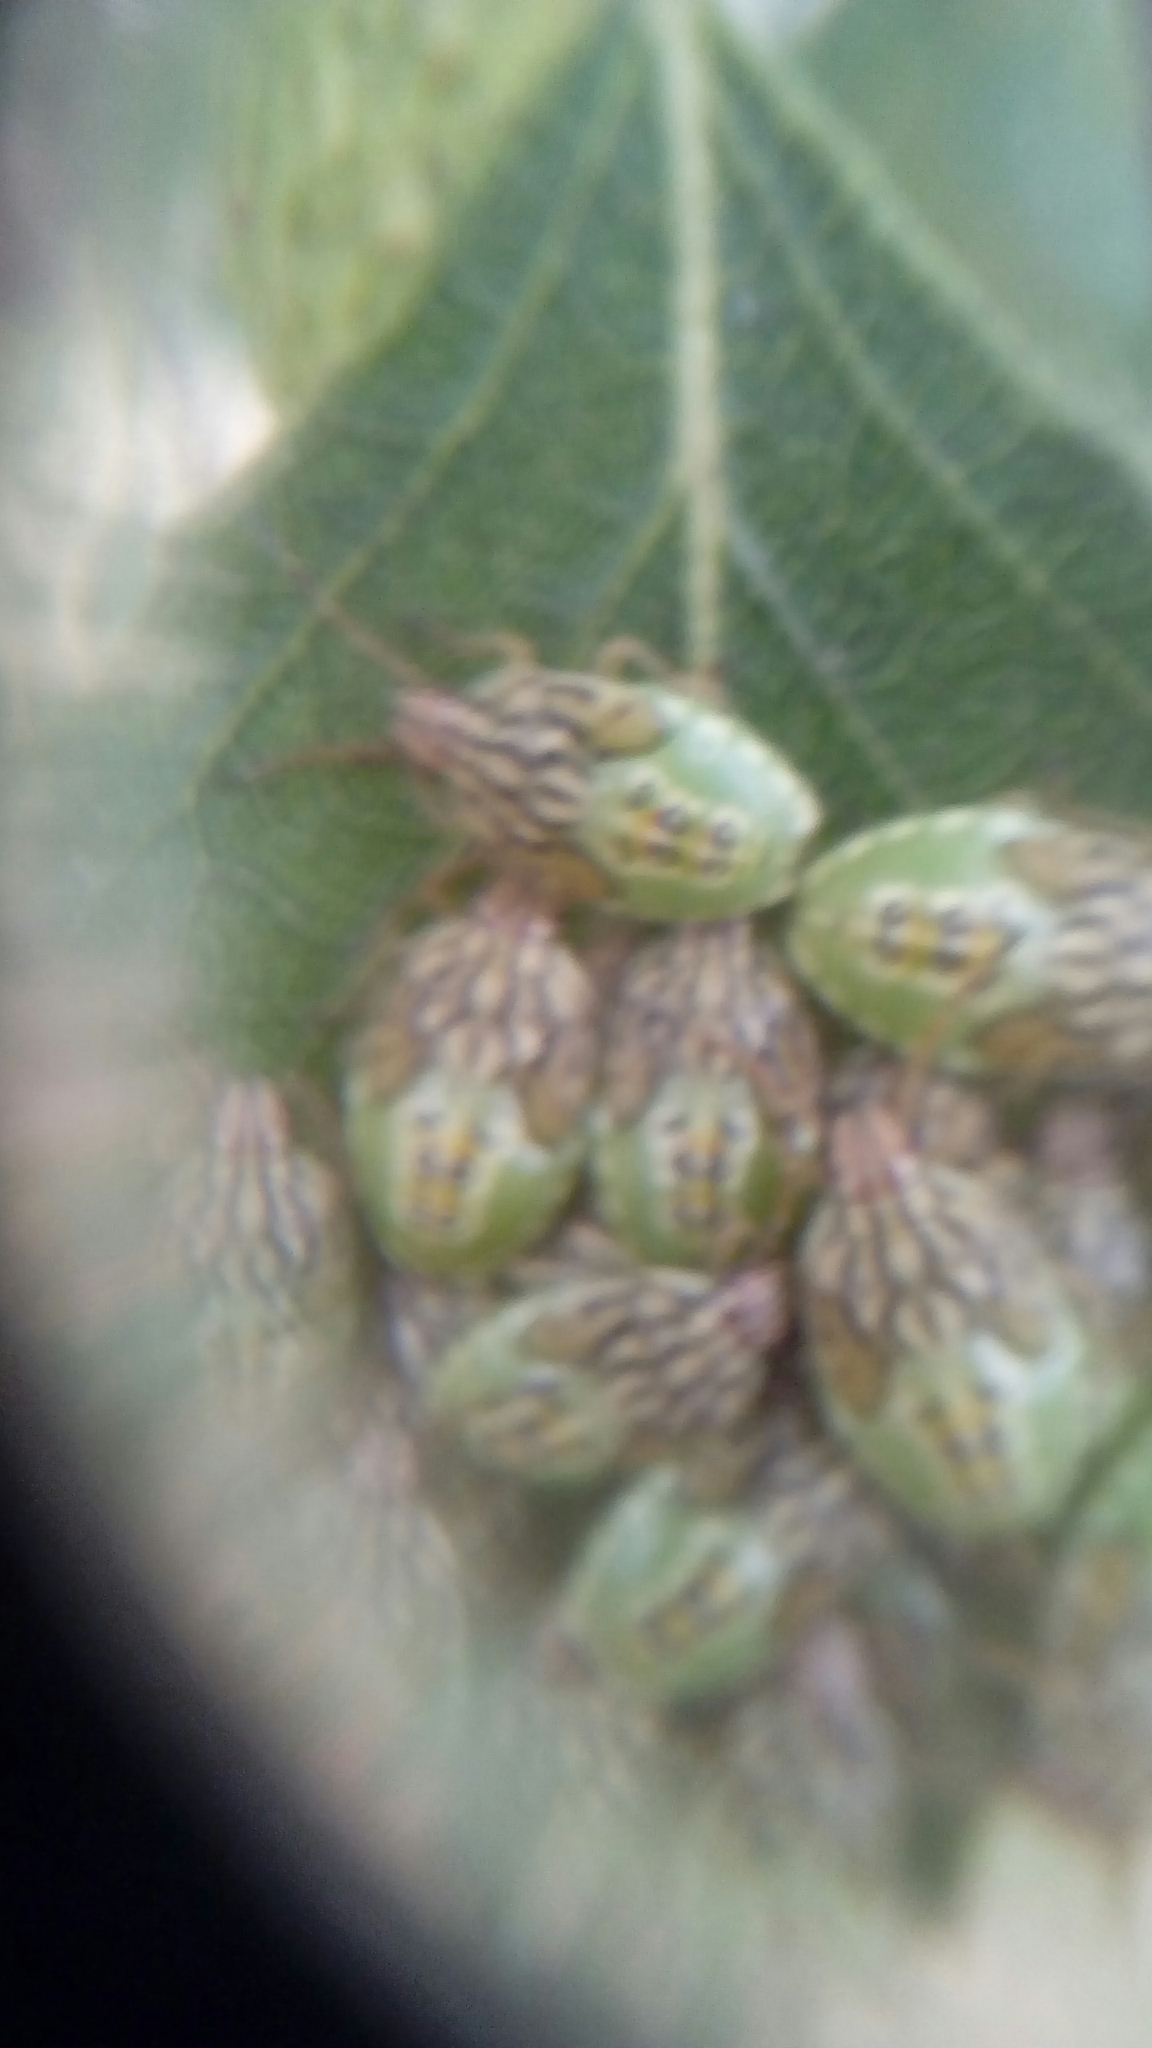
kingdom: Animalia
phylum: Arthropoda
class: Insecta
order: Hemiptera
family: Acanthosomatidae
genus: Elasmucha
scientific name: Elasmucha grisea
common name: Parent bug
